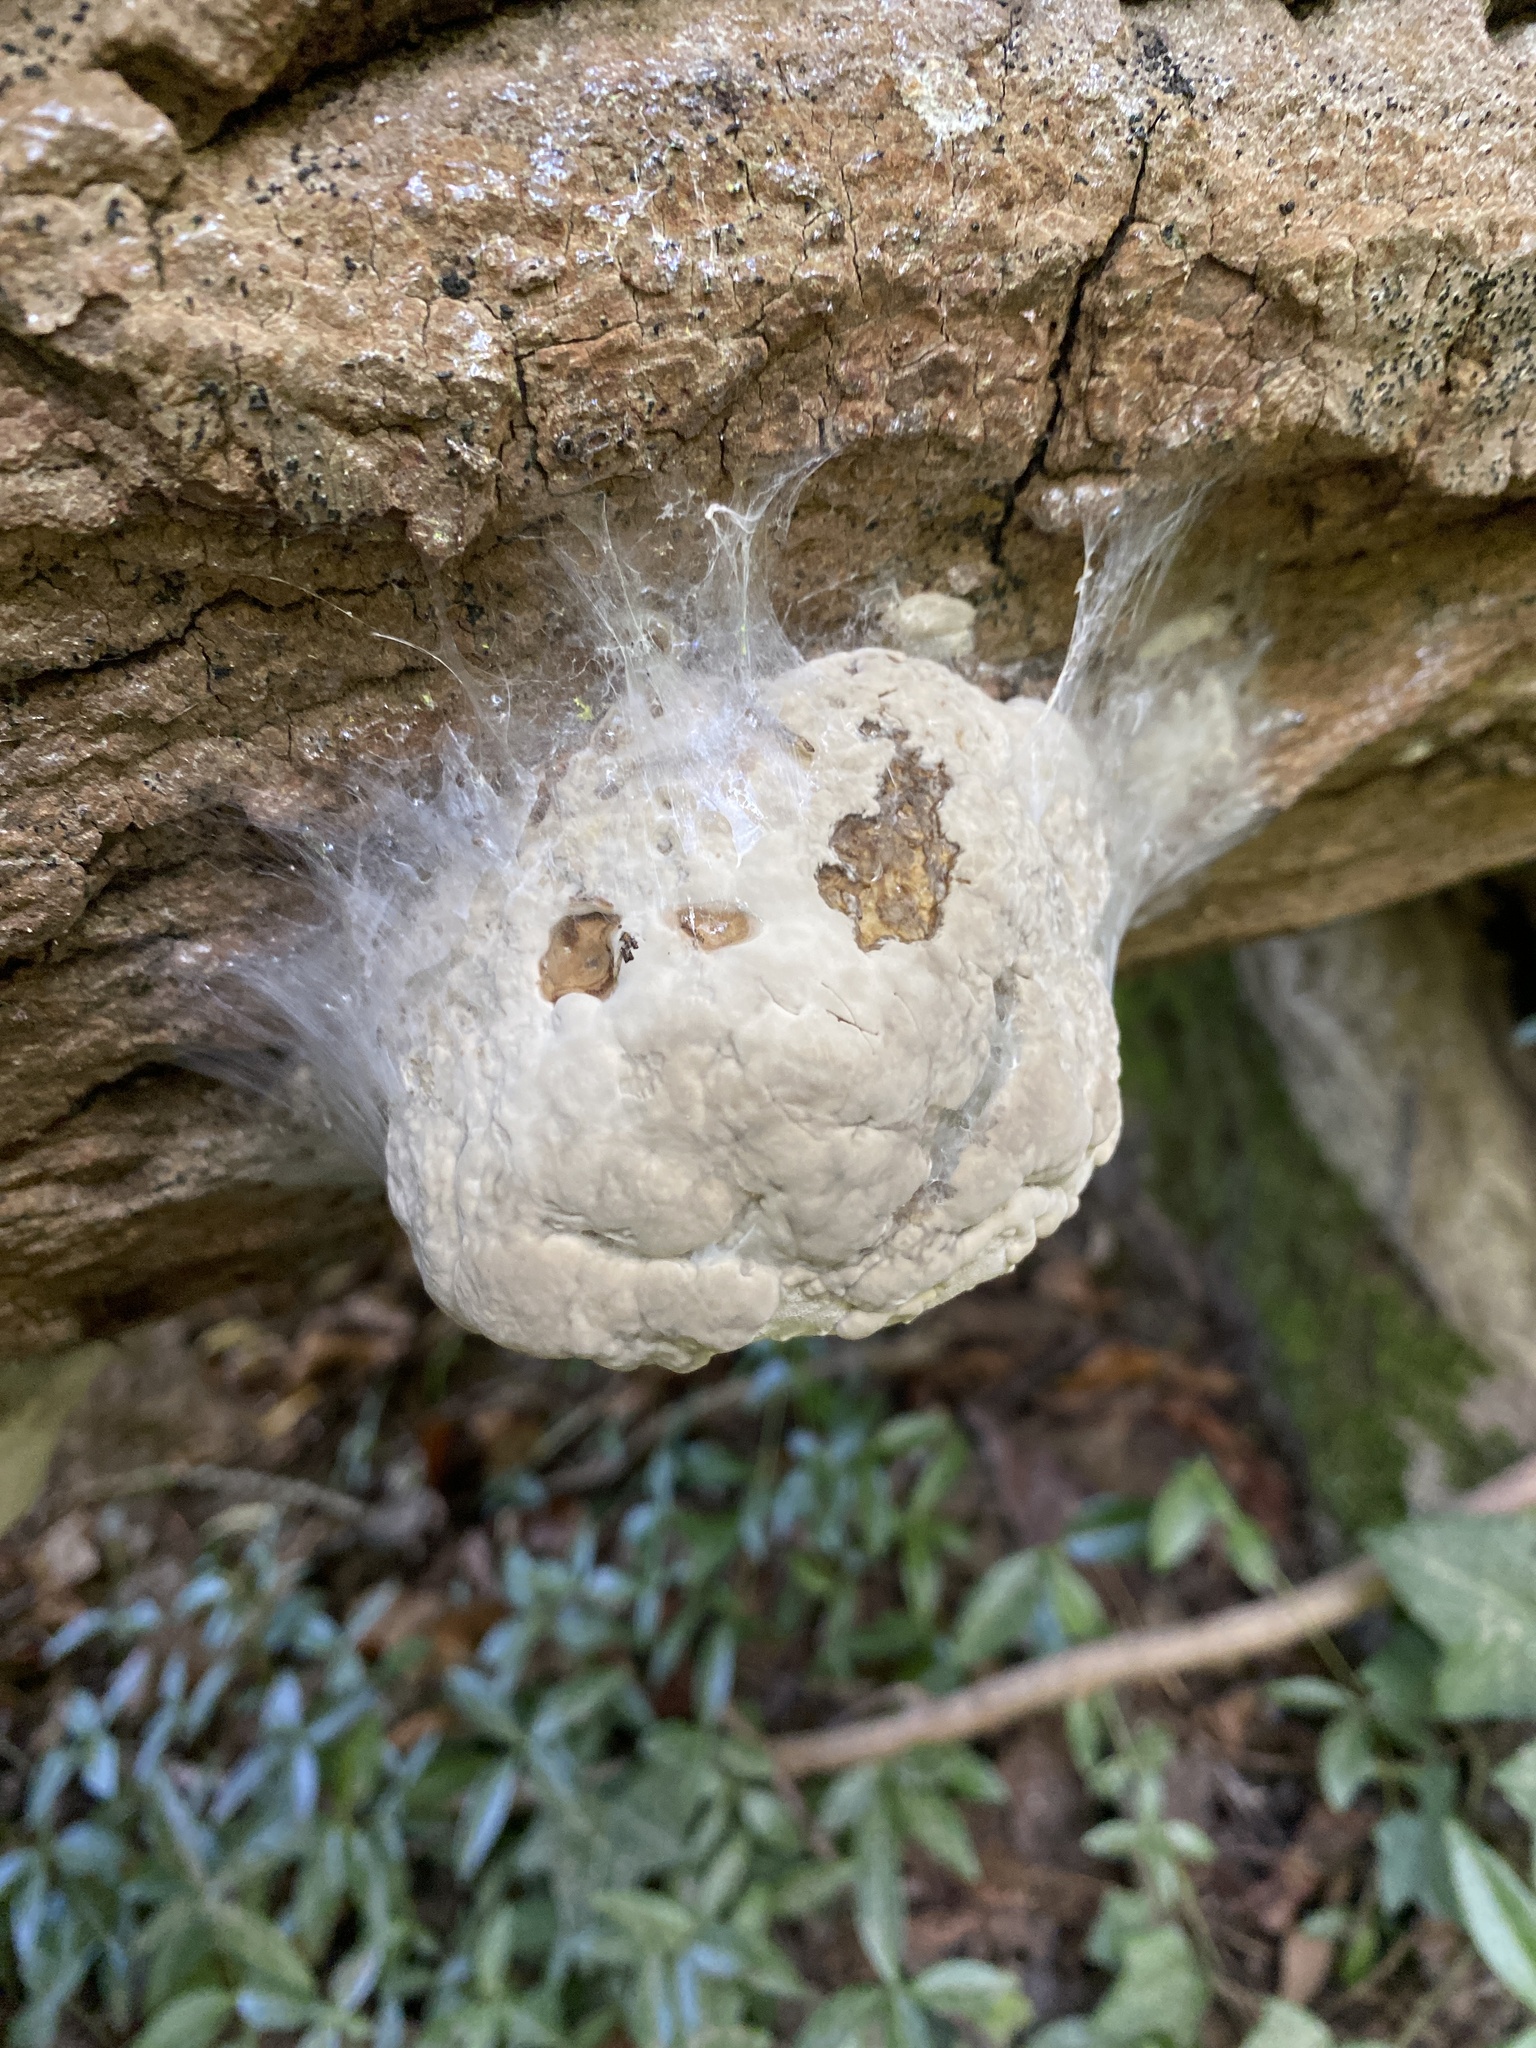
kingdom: Fungi
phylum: Basidiomycota
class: Agaricomycetes
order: Polyporales
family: Polyporaceae
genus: Fomes
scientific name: Fomes fomentarius
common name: Hoof fungus
